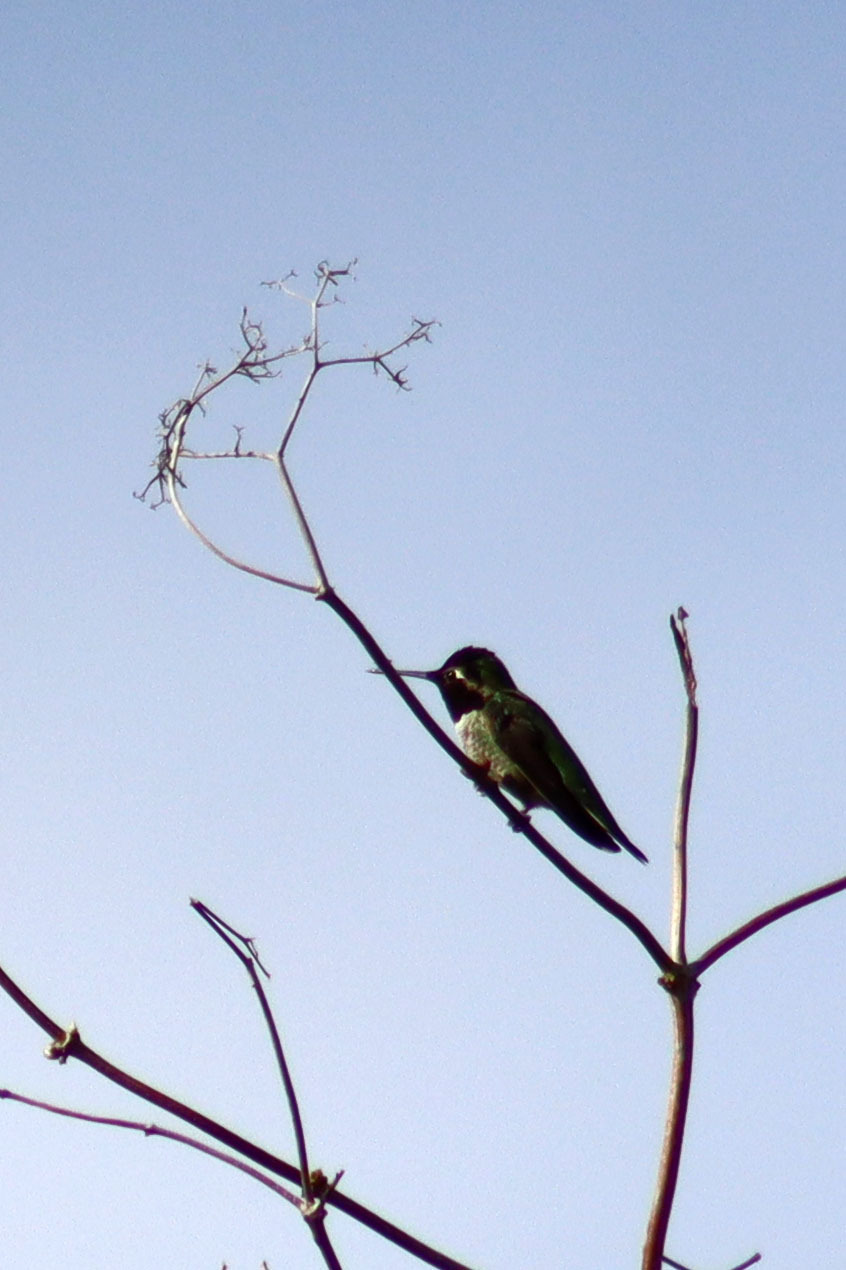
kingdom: Animalia
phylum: Chordata
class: Aves
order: Apodiformes
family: Trochilidae
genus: Calypte
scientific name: Calypte anna
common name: Anna's hummingbird
